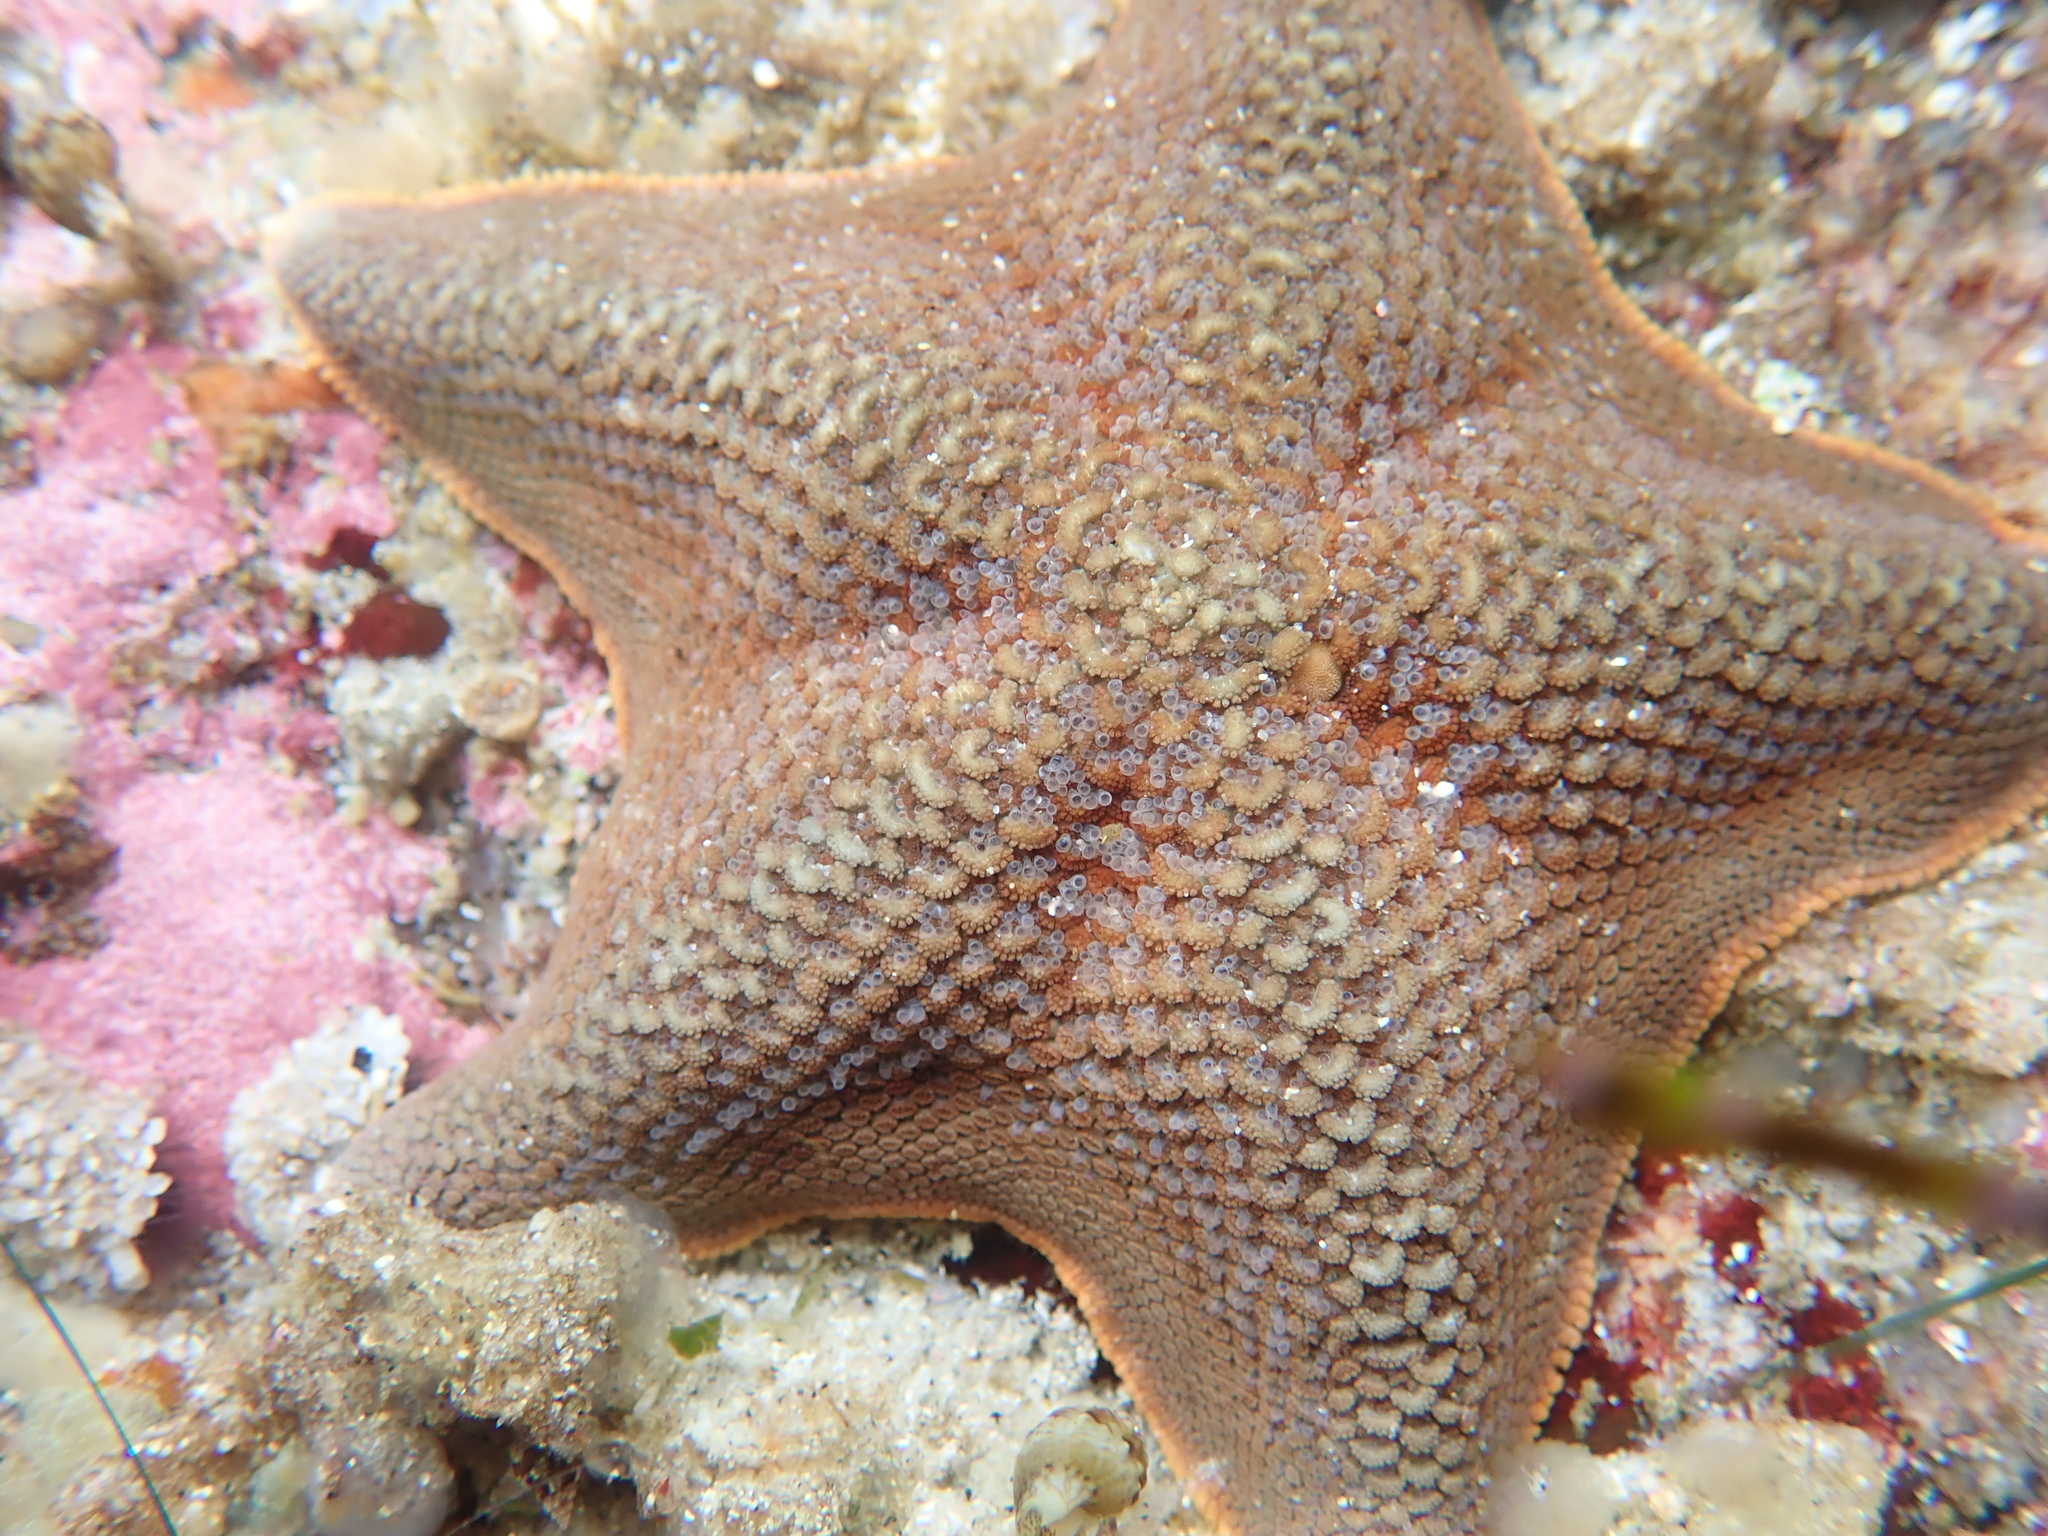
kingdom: Animalia
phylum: Echinodermata
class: Asteroidea
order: Valvatida
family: Asterinidae
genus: Patiria
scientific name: Patiria miniata
